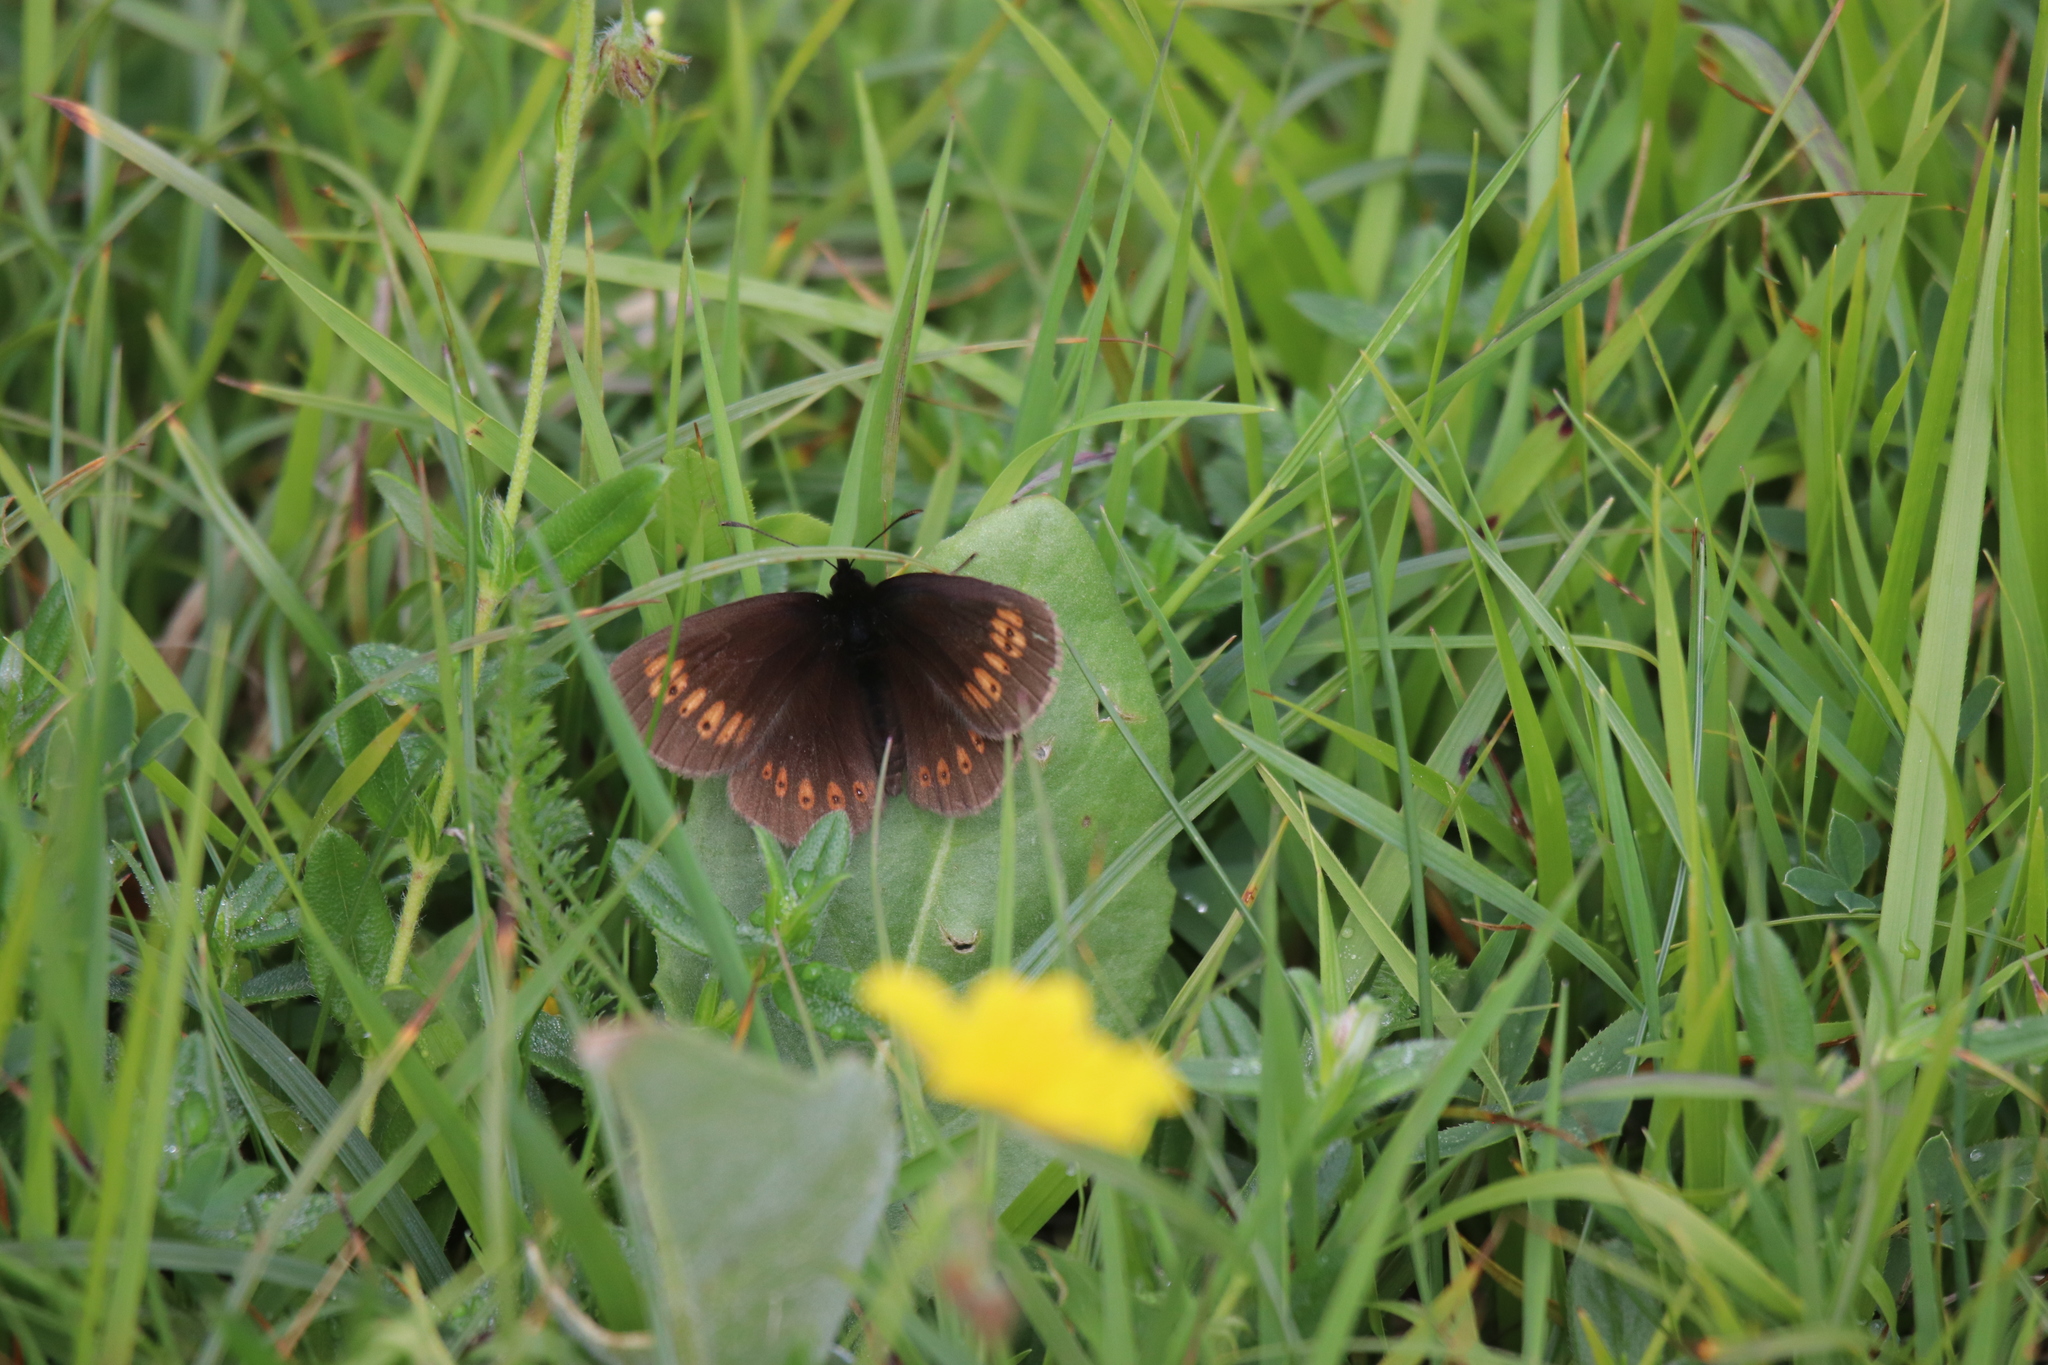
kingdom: Animalia
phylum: Arthropoda
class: Insecta
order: Lepidoptera
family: Nymphalidae
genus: Erebia
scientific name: Erebia alberganus
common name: Almond-eyed ringlet
